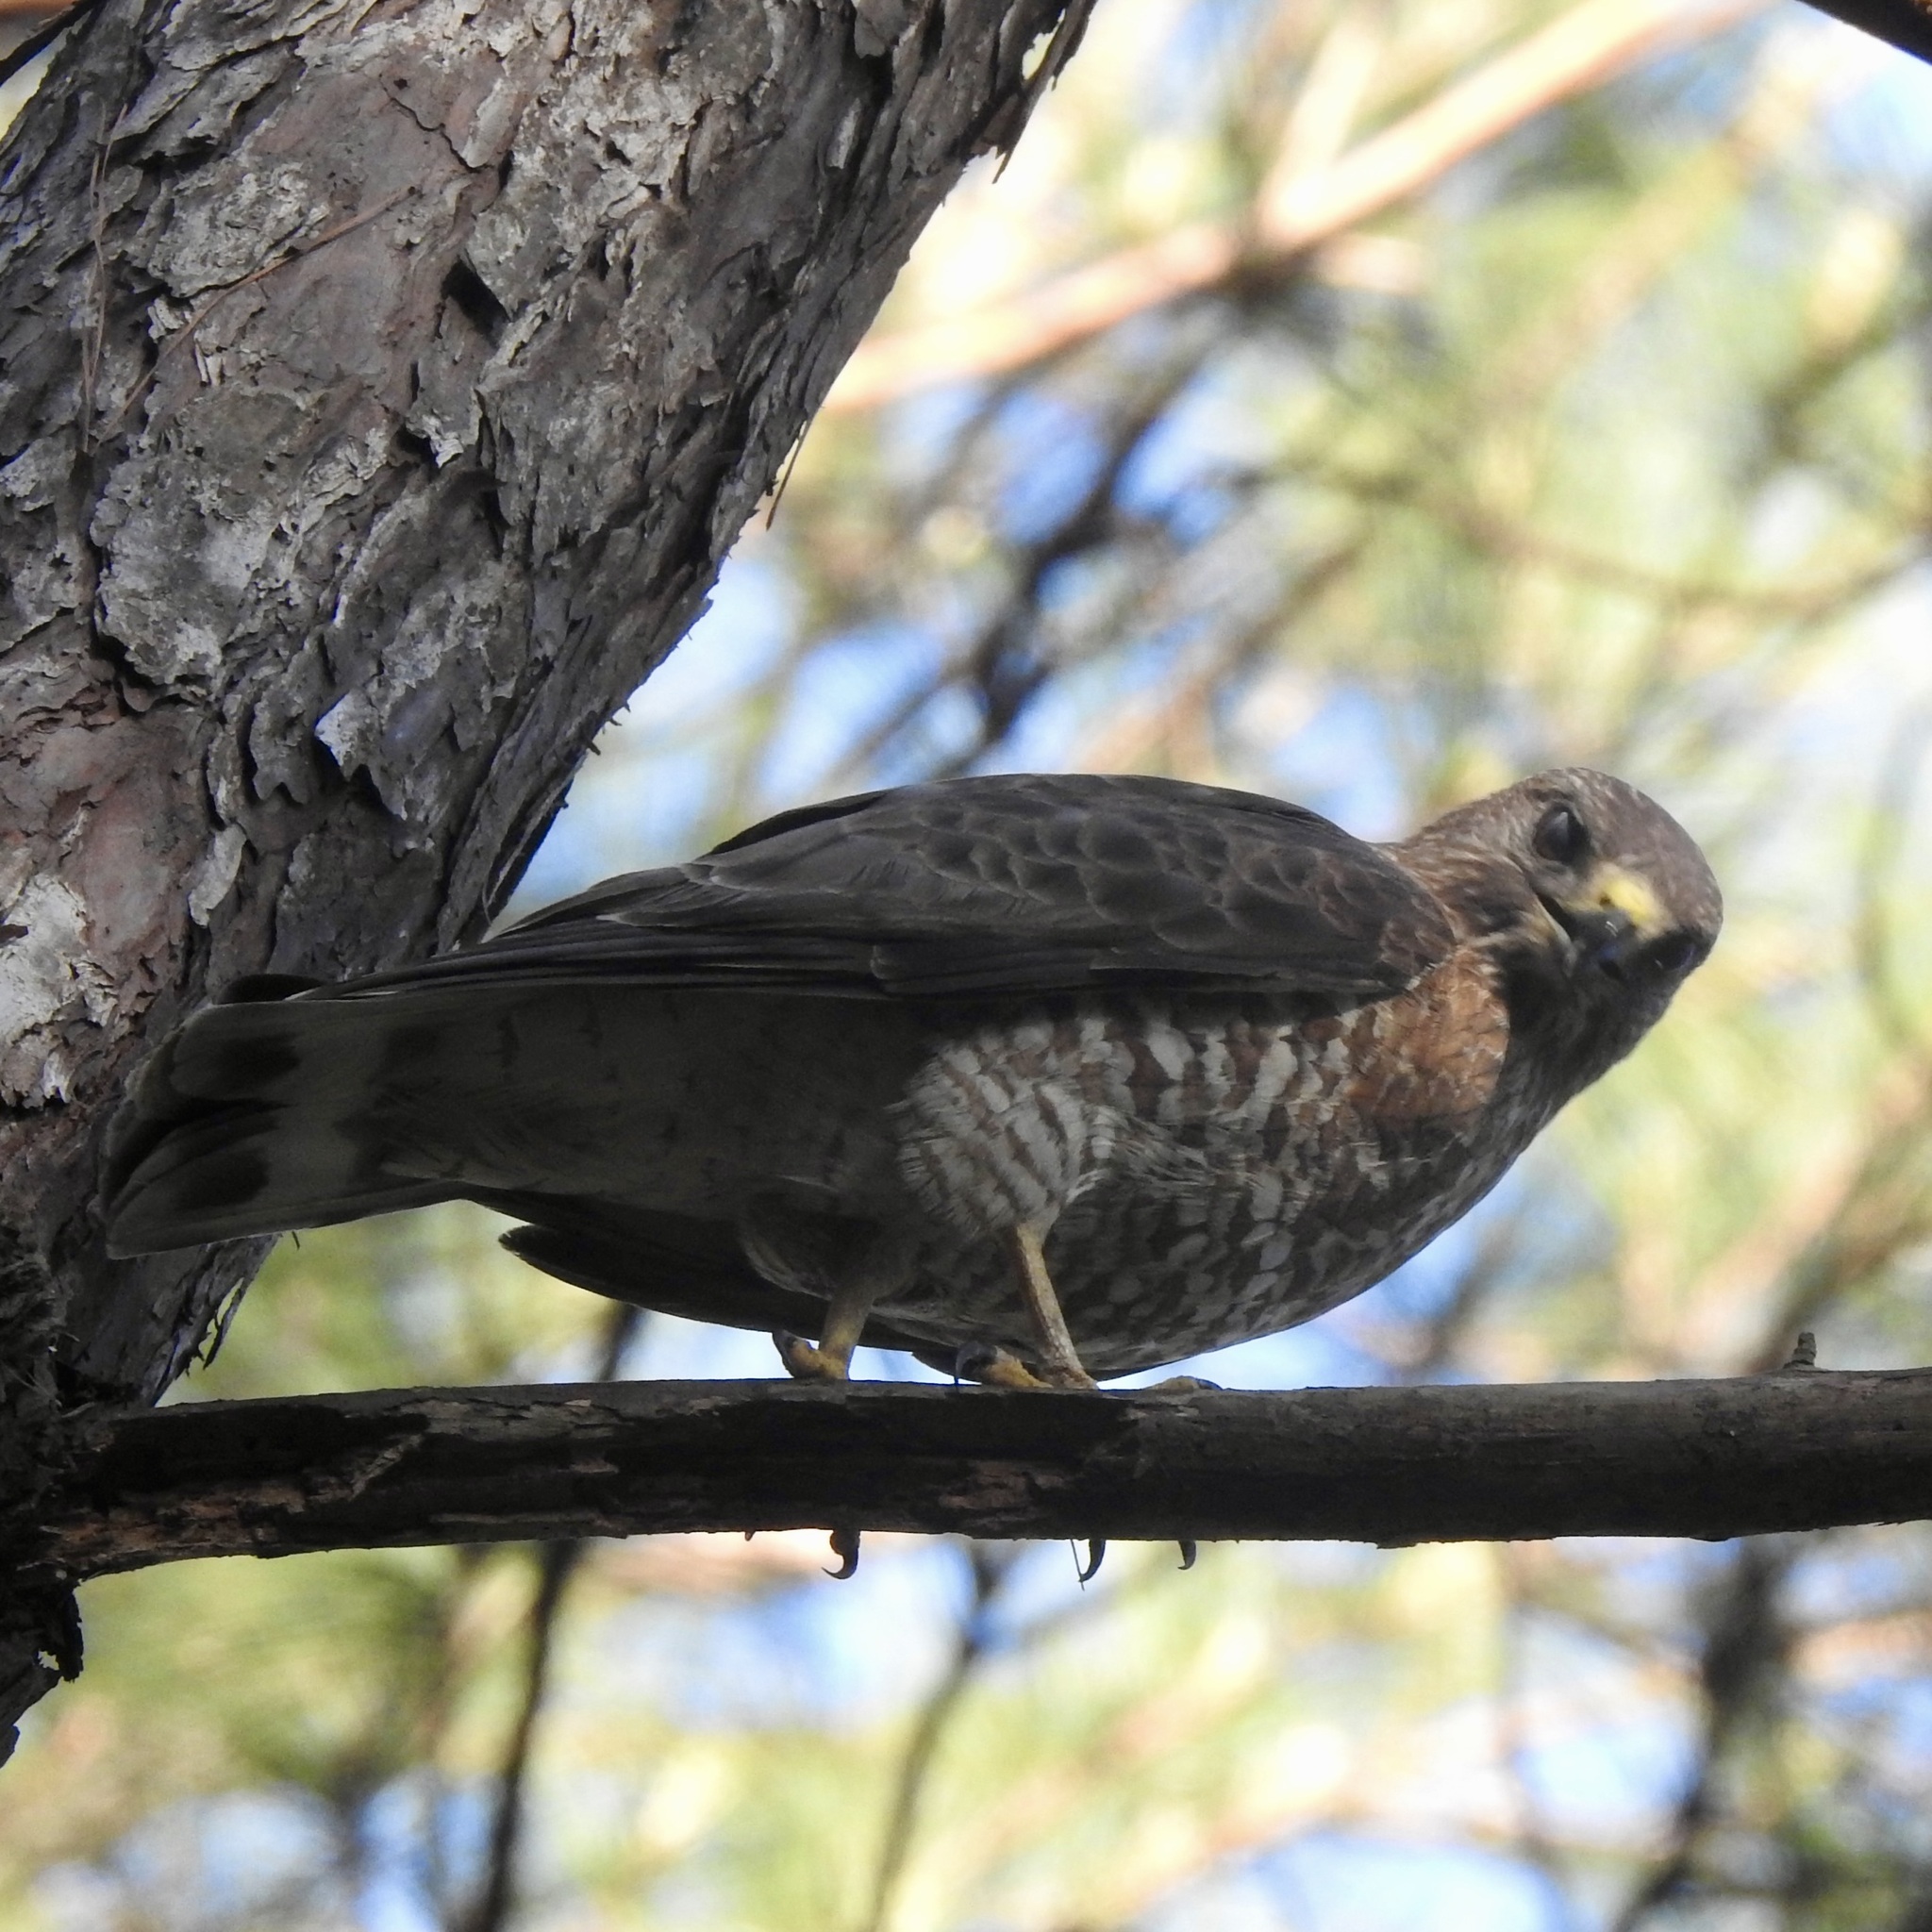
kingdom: Animalia
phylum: Chordata
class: Aves
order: Accipitriformes
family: Accipitridae
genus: Buteo
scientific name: Buteo platypterus
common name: Broad-winged hawk
